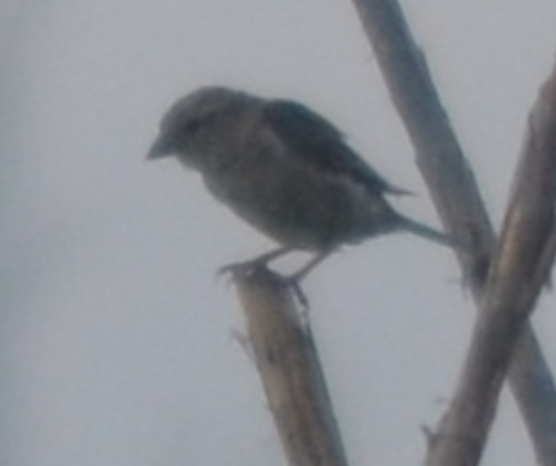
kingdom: Animalia
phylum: Chordata
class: Aves
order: Passeriformes
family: Passeridae
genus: Passer
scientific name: Passer domesticus
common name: House sparrow
